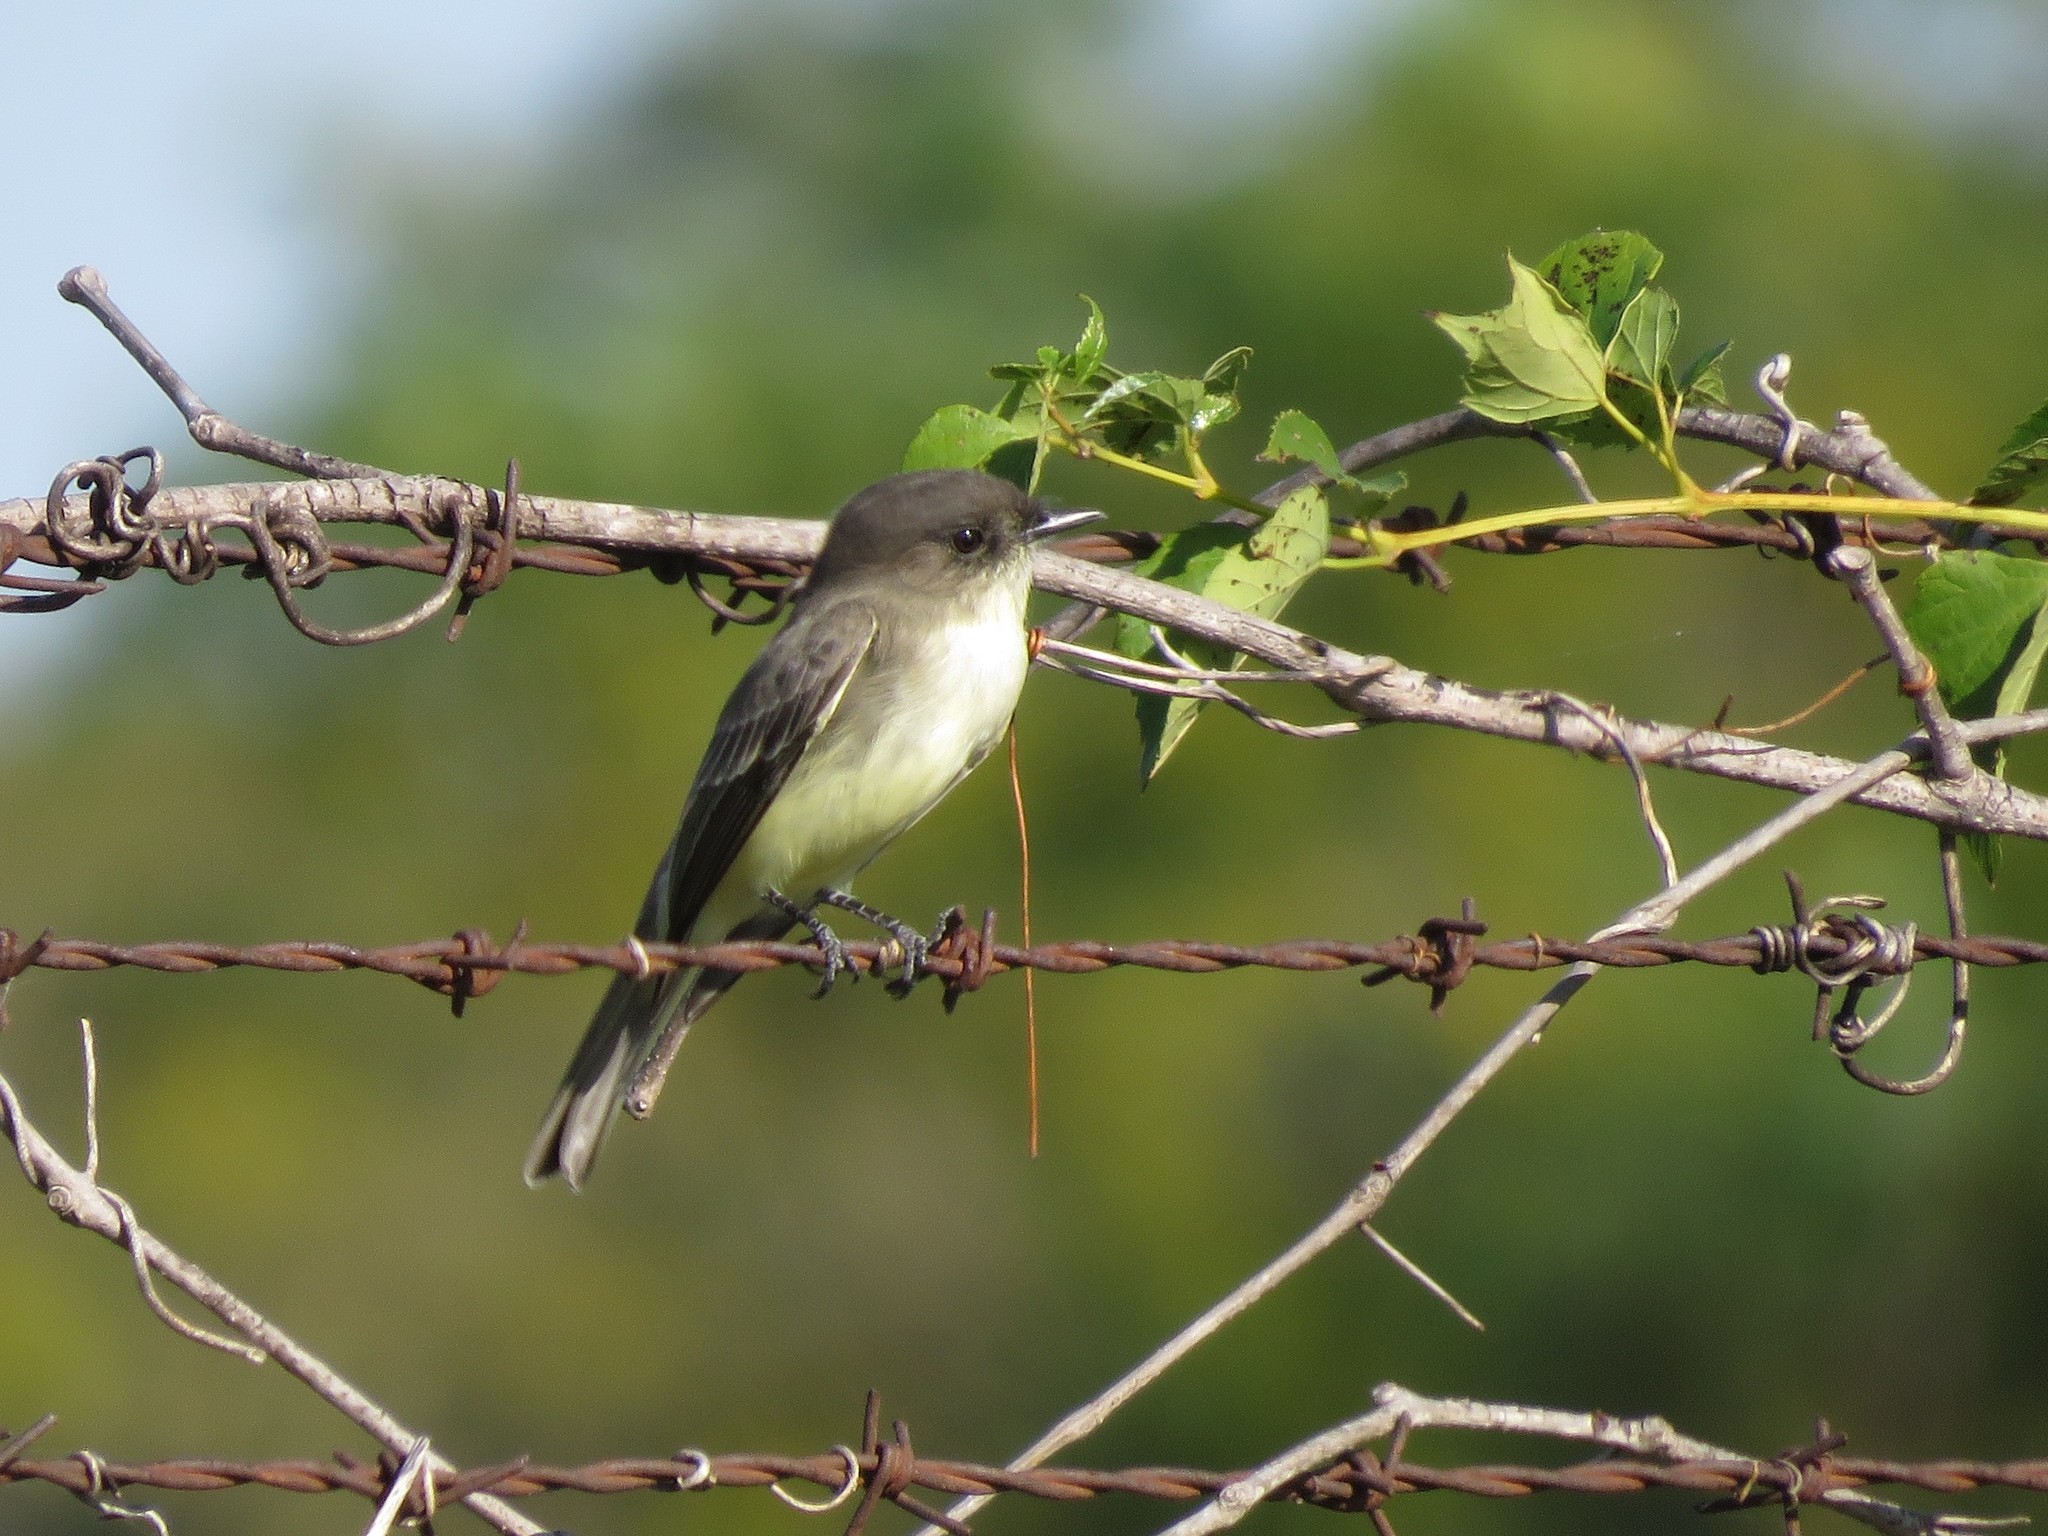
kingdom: Animalia
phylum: Chordata
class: Aves
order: Passeriformes
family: Tyrannidae
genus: Sayornis
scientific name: Sayornis phoebe
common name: Eastern phoebe
